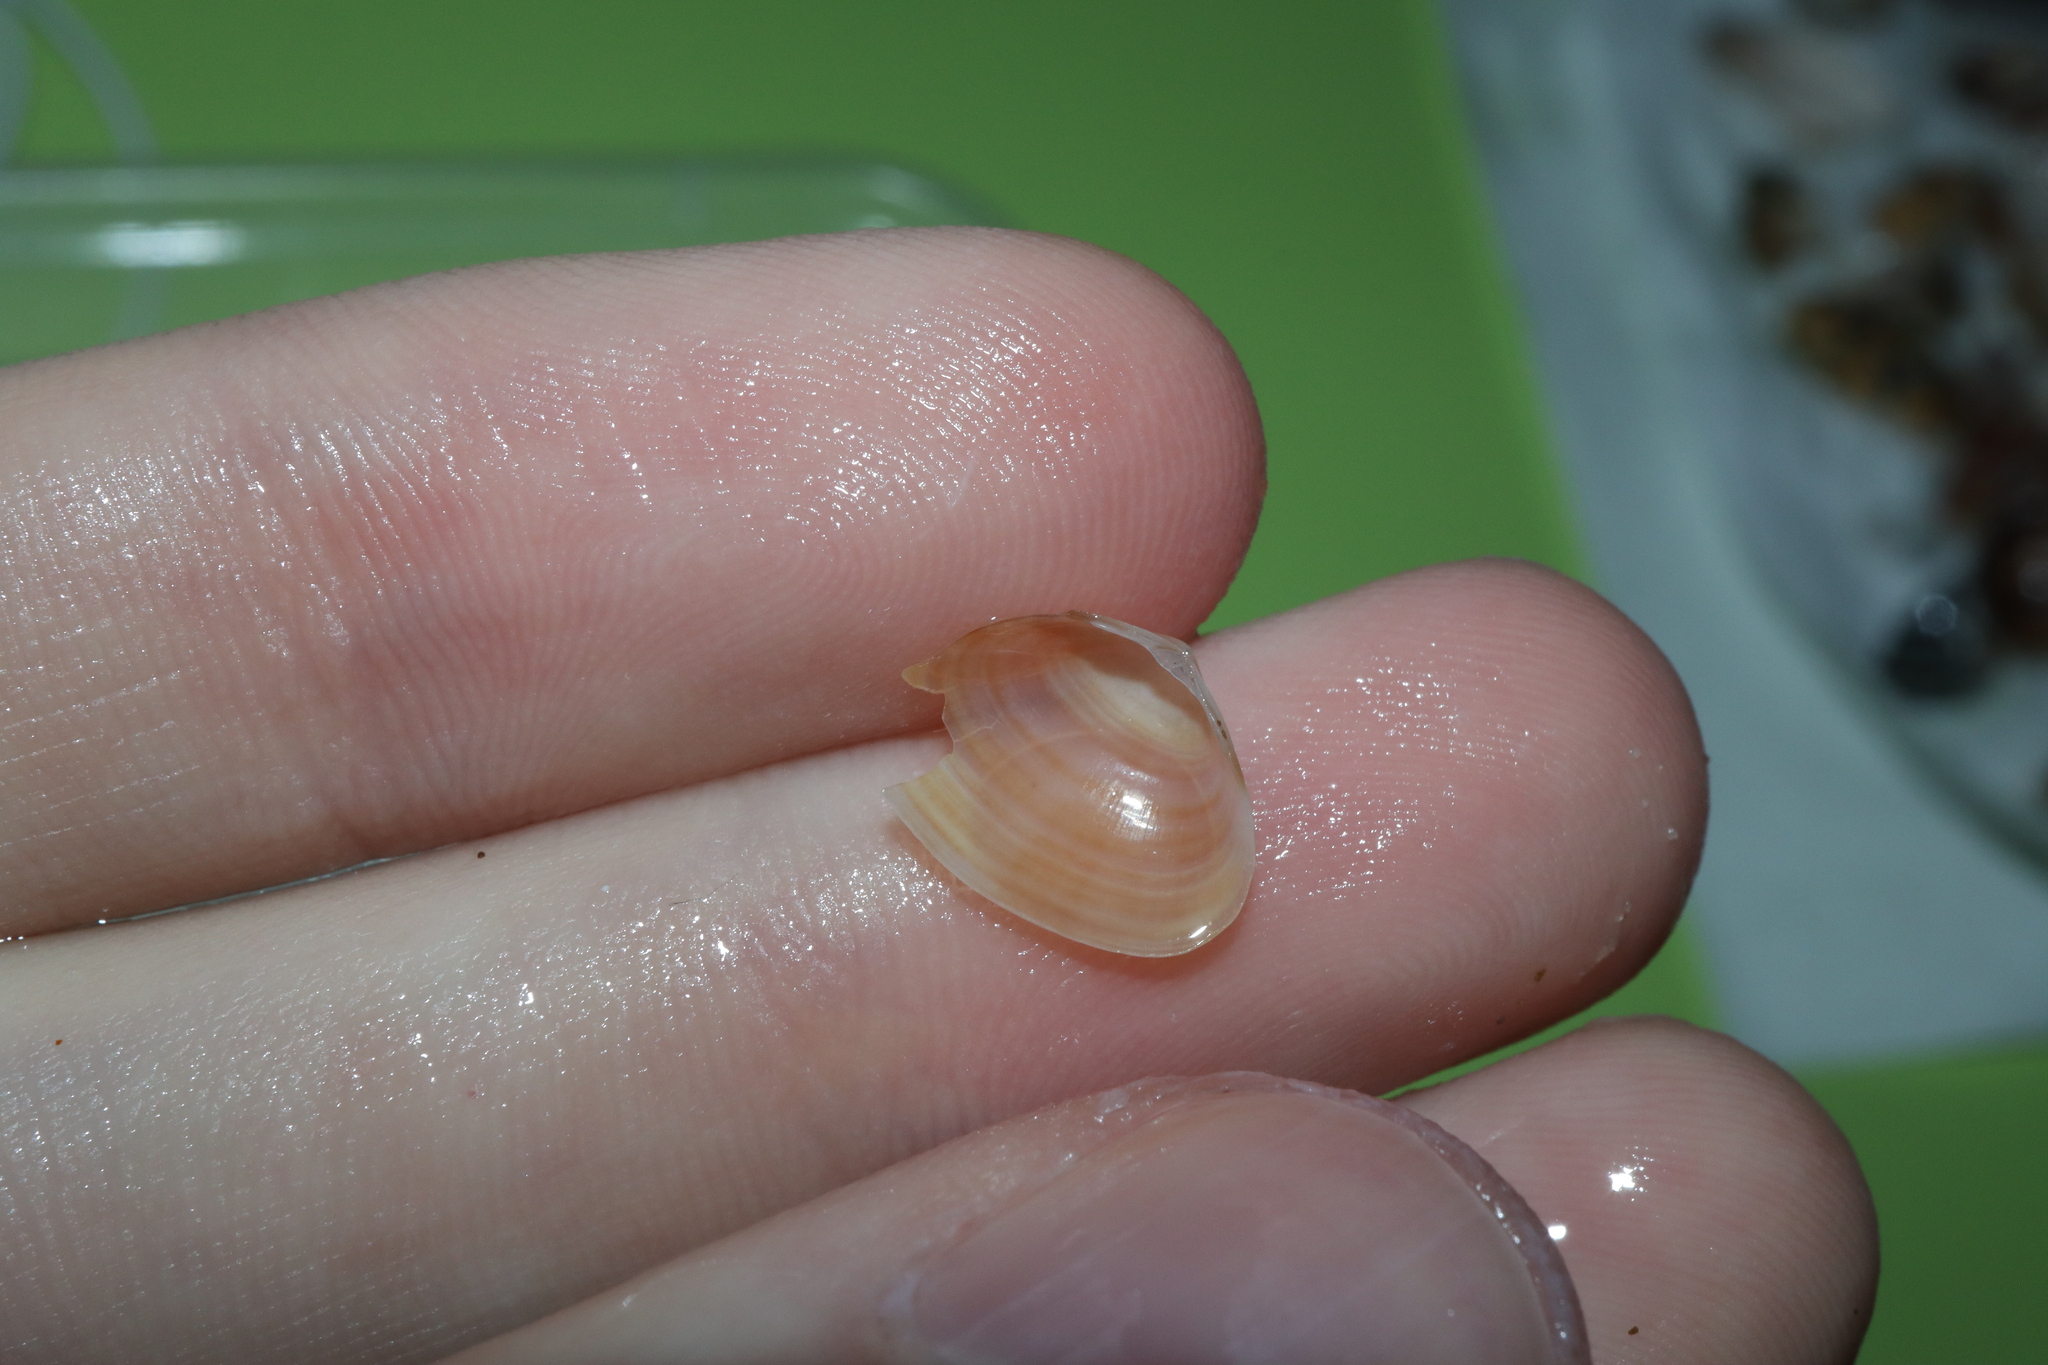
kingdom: Animalia
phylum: Mollusca
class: Bivalvia
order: Venerida
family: Mactridae
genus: Mactra
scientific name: Mactra pusilla
